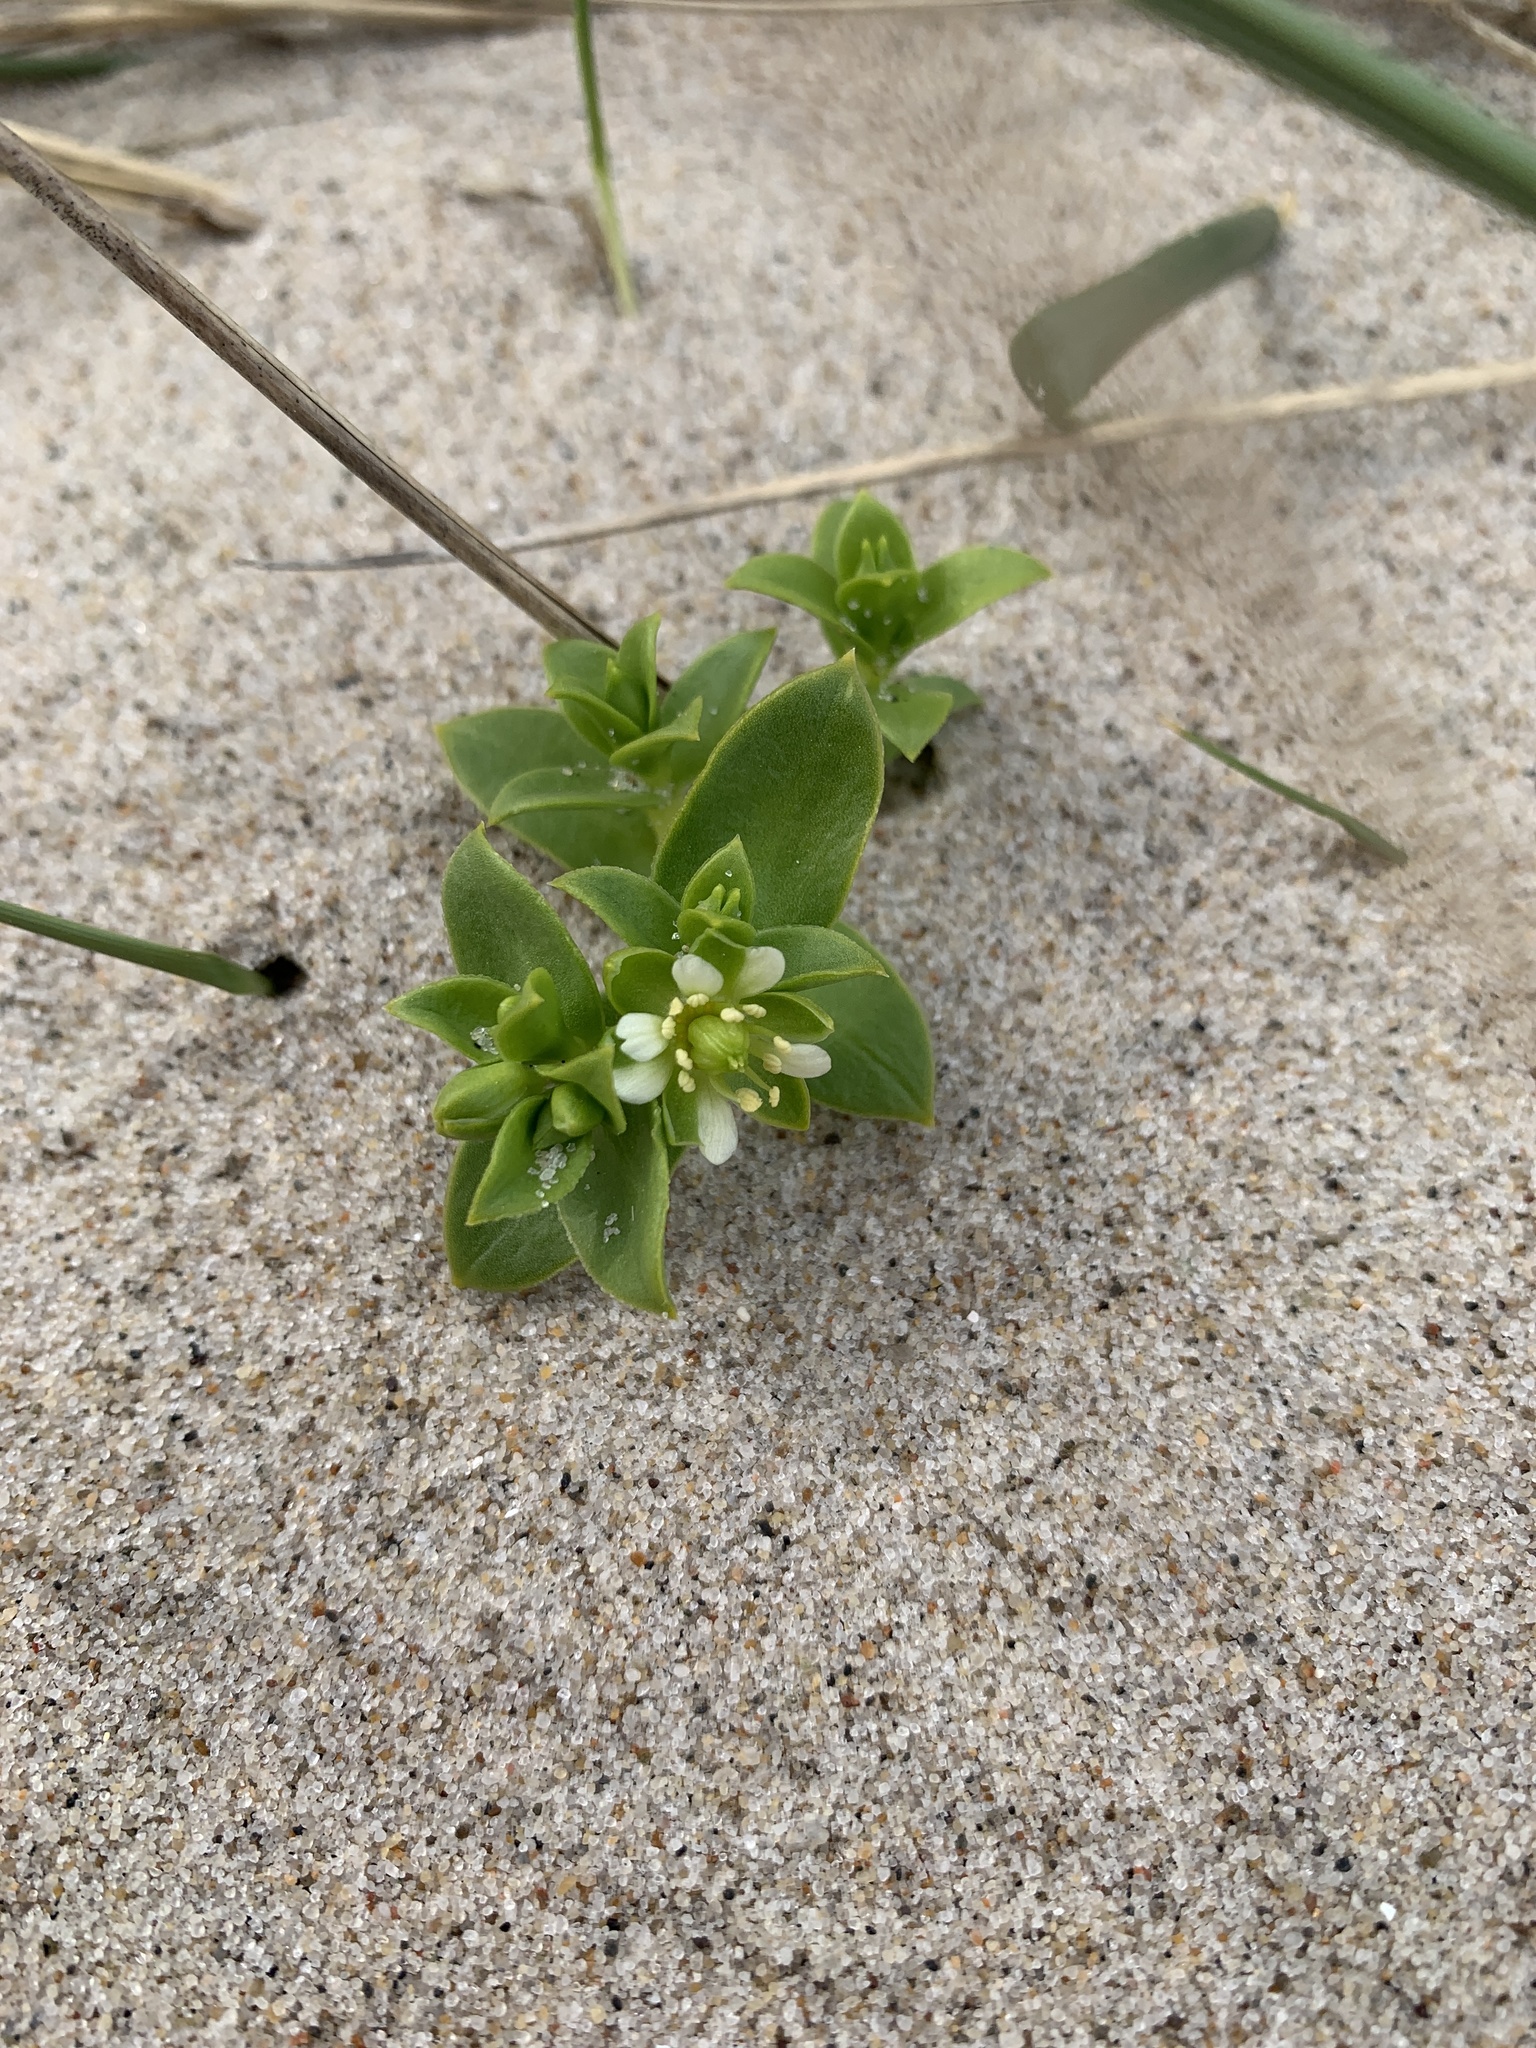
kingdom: Plantae
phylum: Tracheophyta
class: Magnoliopsida
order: Caryophyllales
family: Caryophyllaceae
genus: Honckenya
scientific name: Honckenya peploides
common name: Sea sandwort
